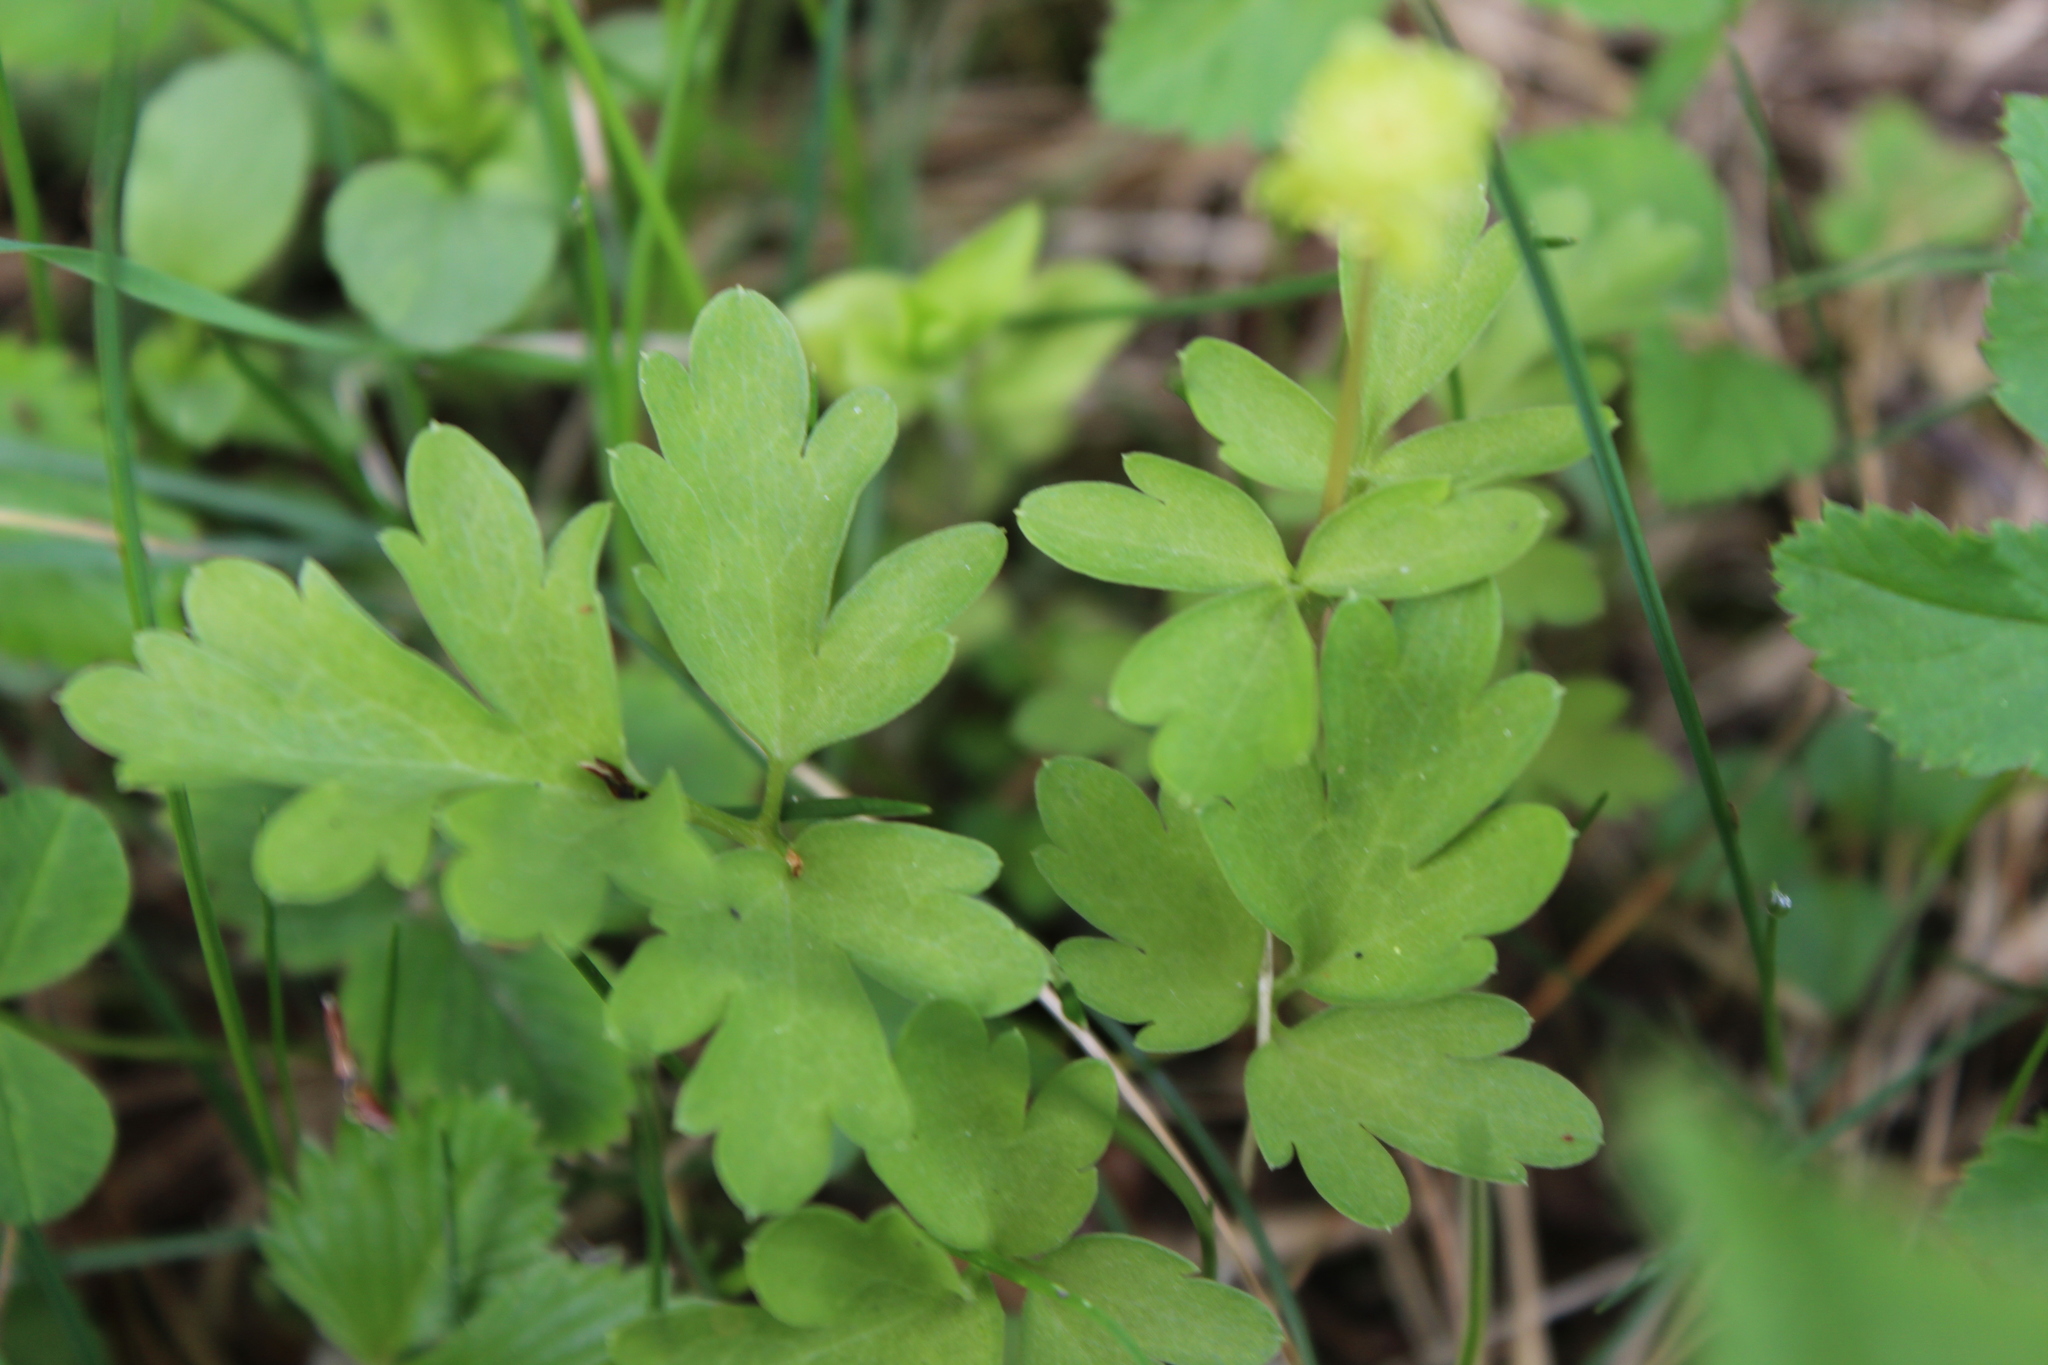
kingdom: Plantae
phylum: Tracheophyta
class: Magnoliopsida
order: Dipsacales
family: Viburnaceae
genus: Adoxa
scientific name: Adoxa moschatellina
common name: Moschatel
